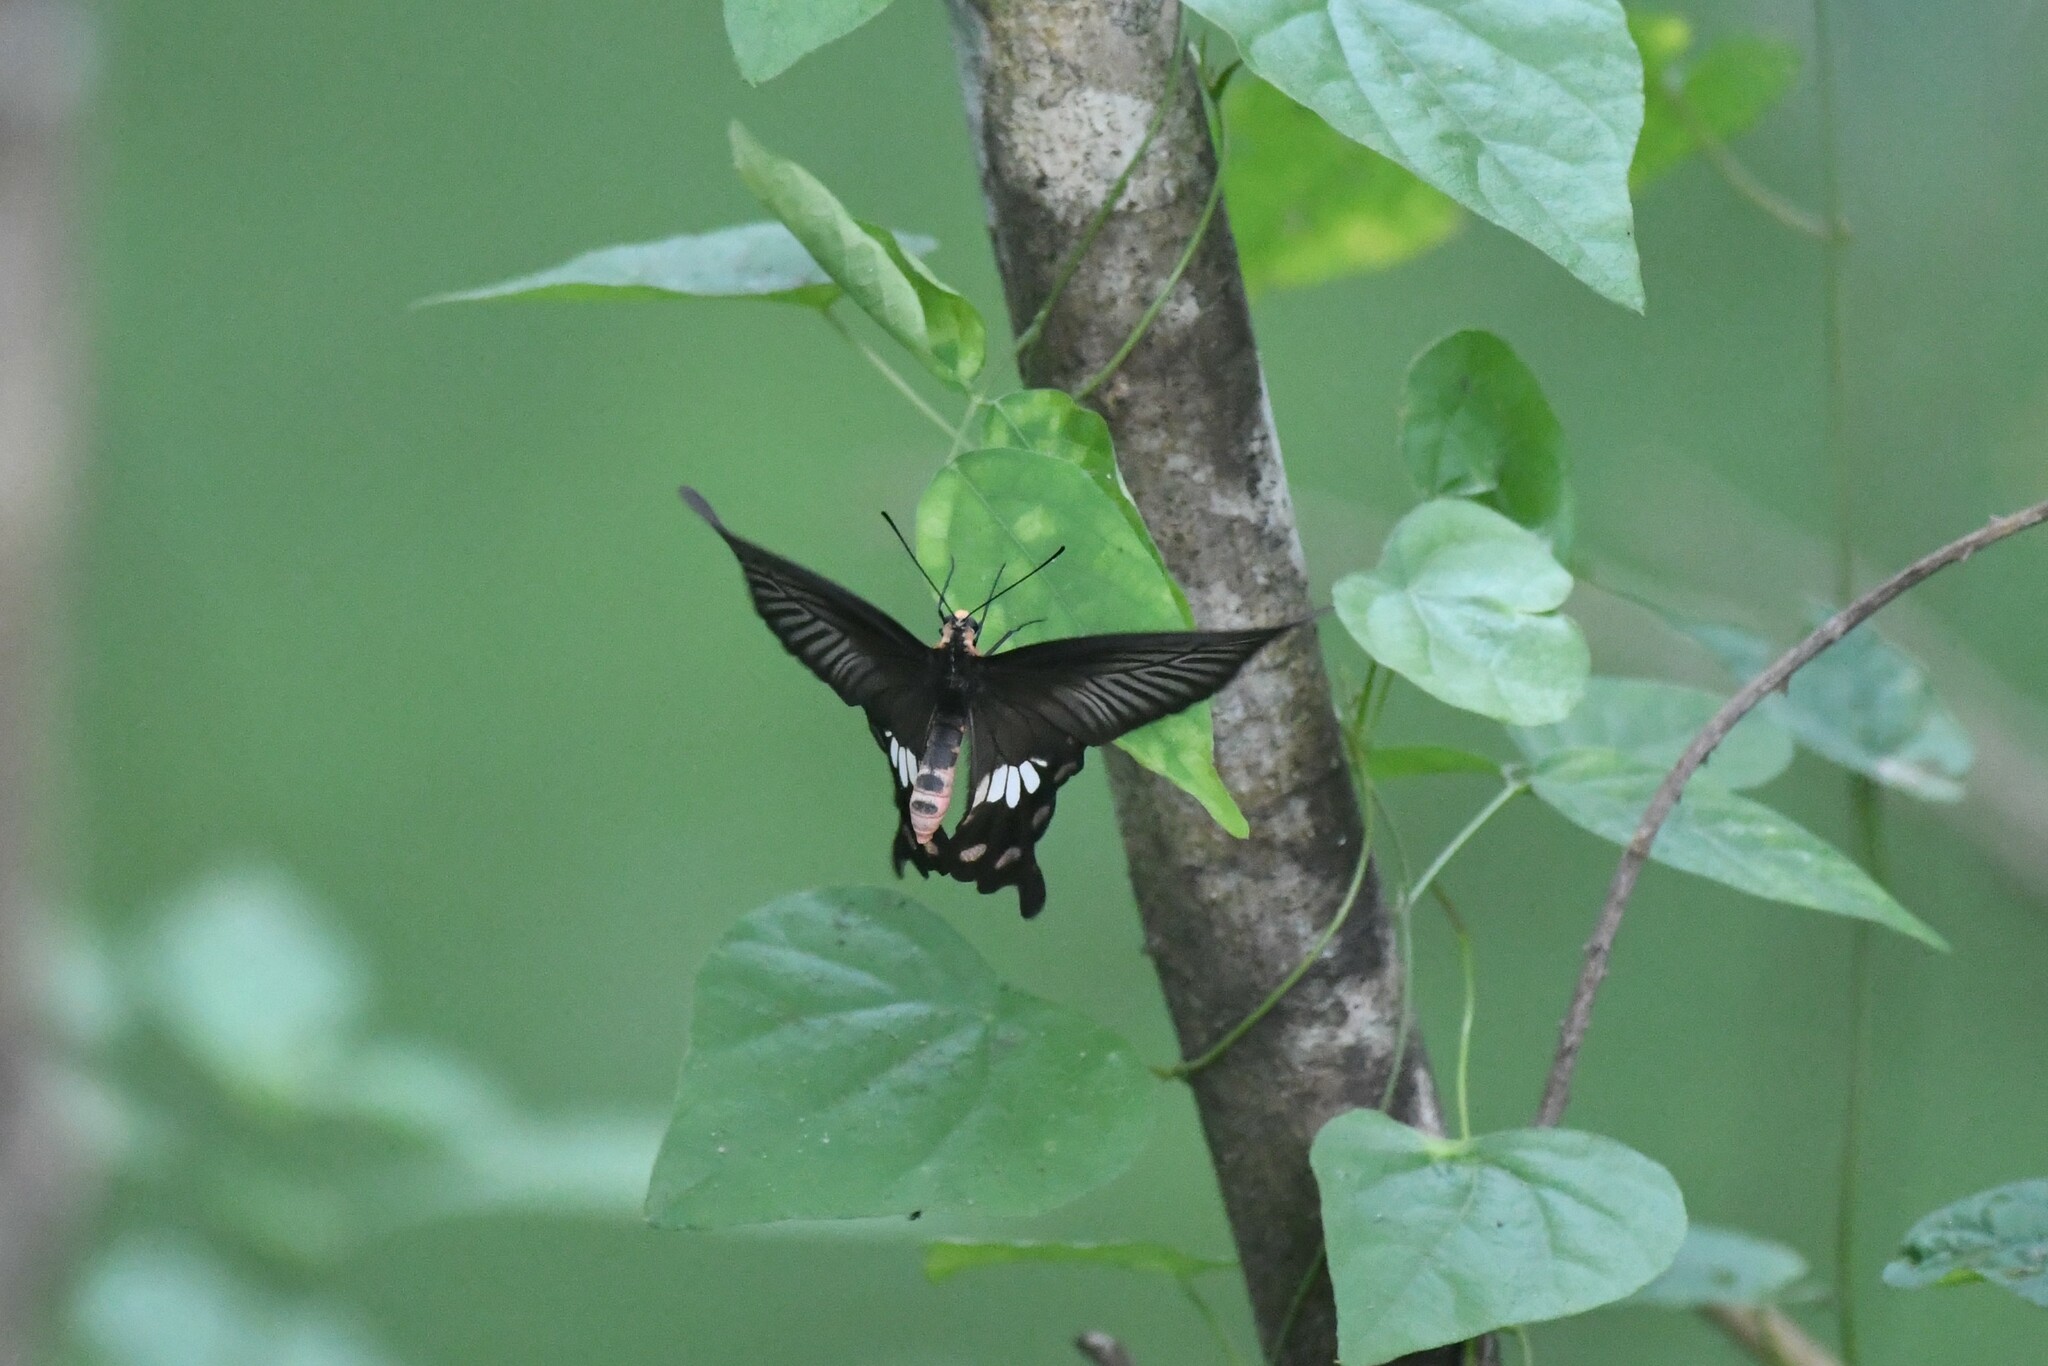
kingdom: Animalia
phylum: Arthropoda
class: Insecta
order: Lepidoptera
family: Papilionidae
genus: Pachliopta
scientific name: Pachliopta aristolochiae
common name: Common rose
